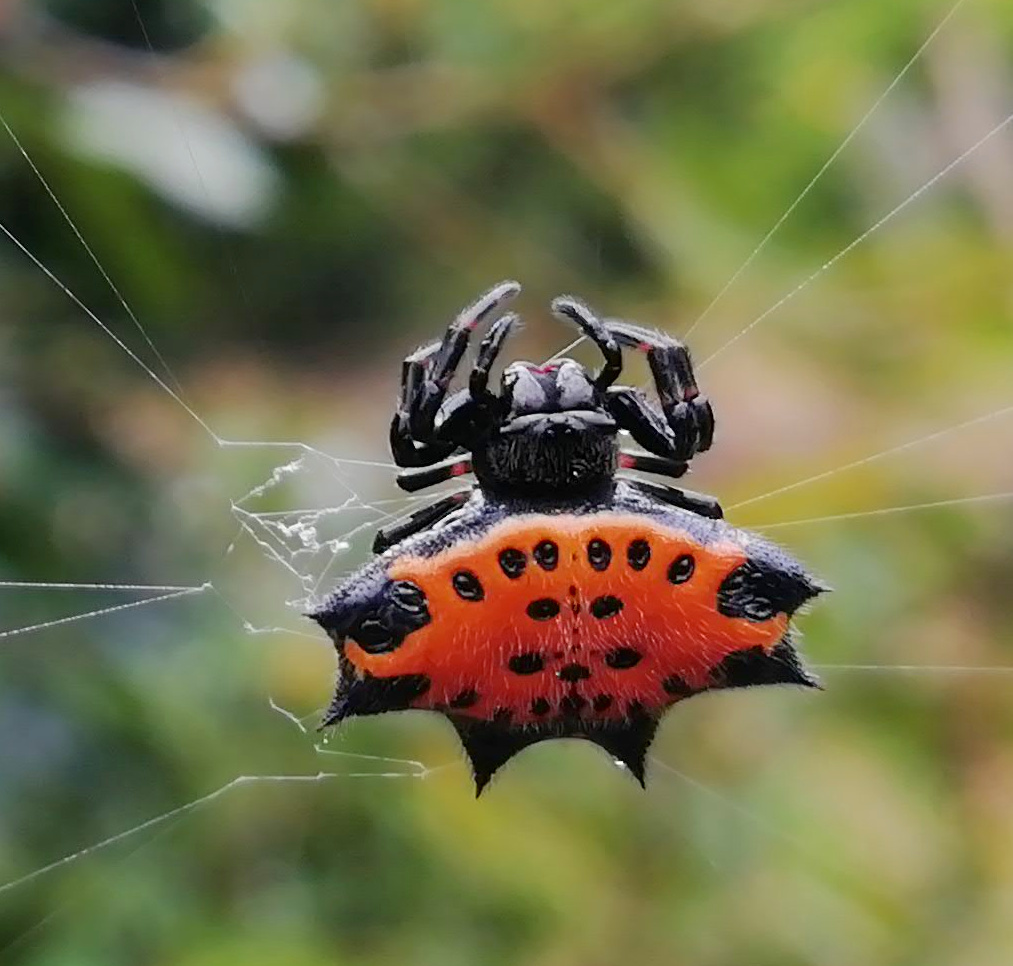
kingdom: Animalia
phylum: Arthropoda
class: Arachnida
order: Araneae
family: Araneidae
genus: Gasteracantha
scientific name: Gasteracantha cancriformis
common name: Orb weavers
